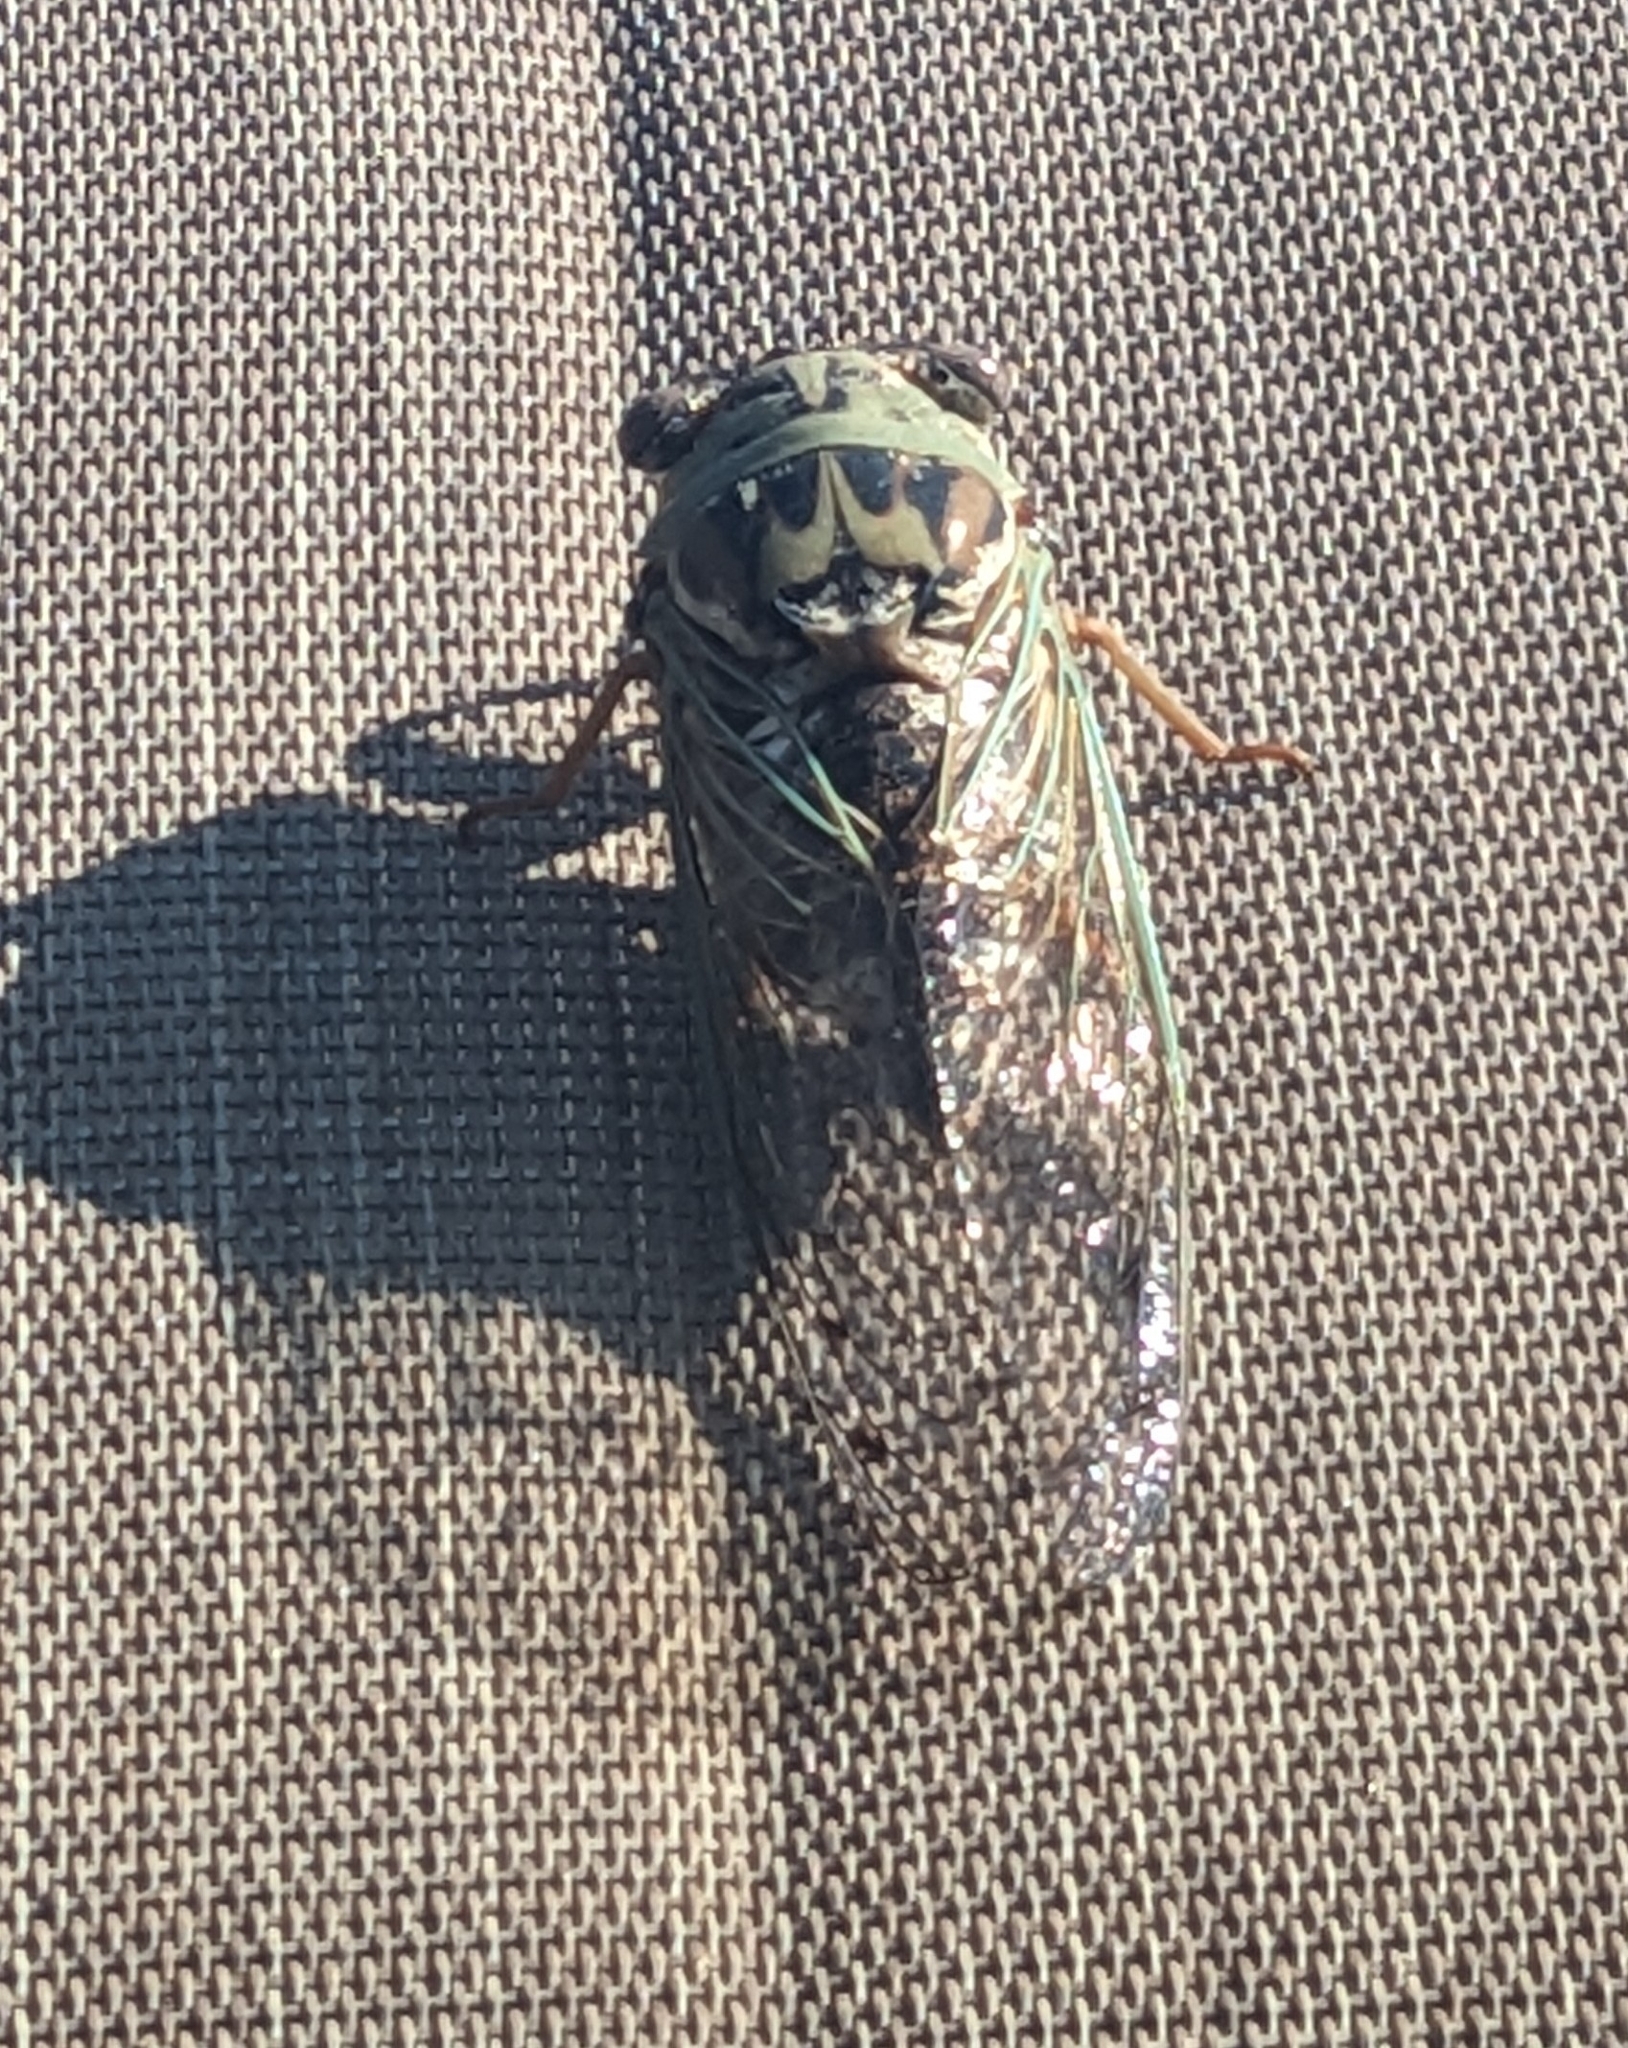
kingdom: Animalia
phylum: Arthropoda
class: Insecta
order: Hemiptera
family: Cicadidae
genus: Megatibicen
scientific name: Megatibicen resh
